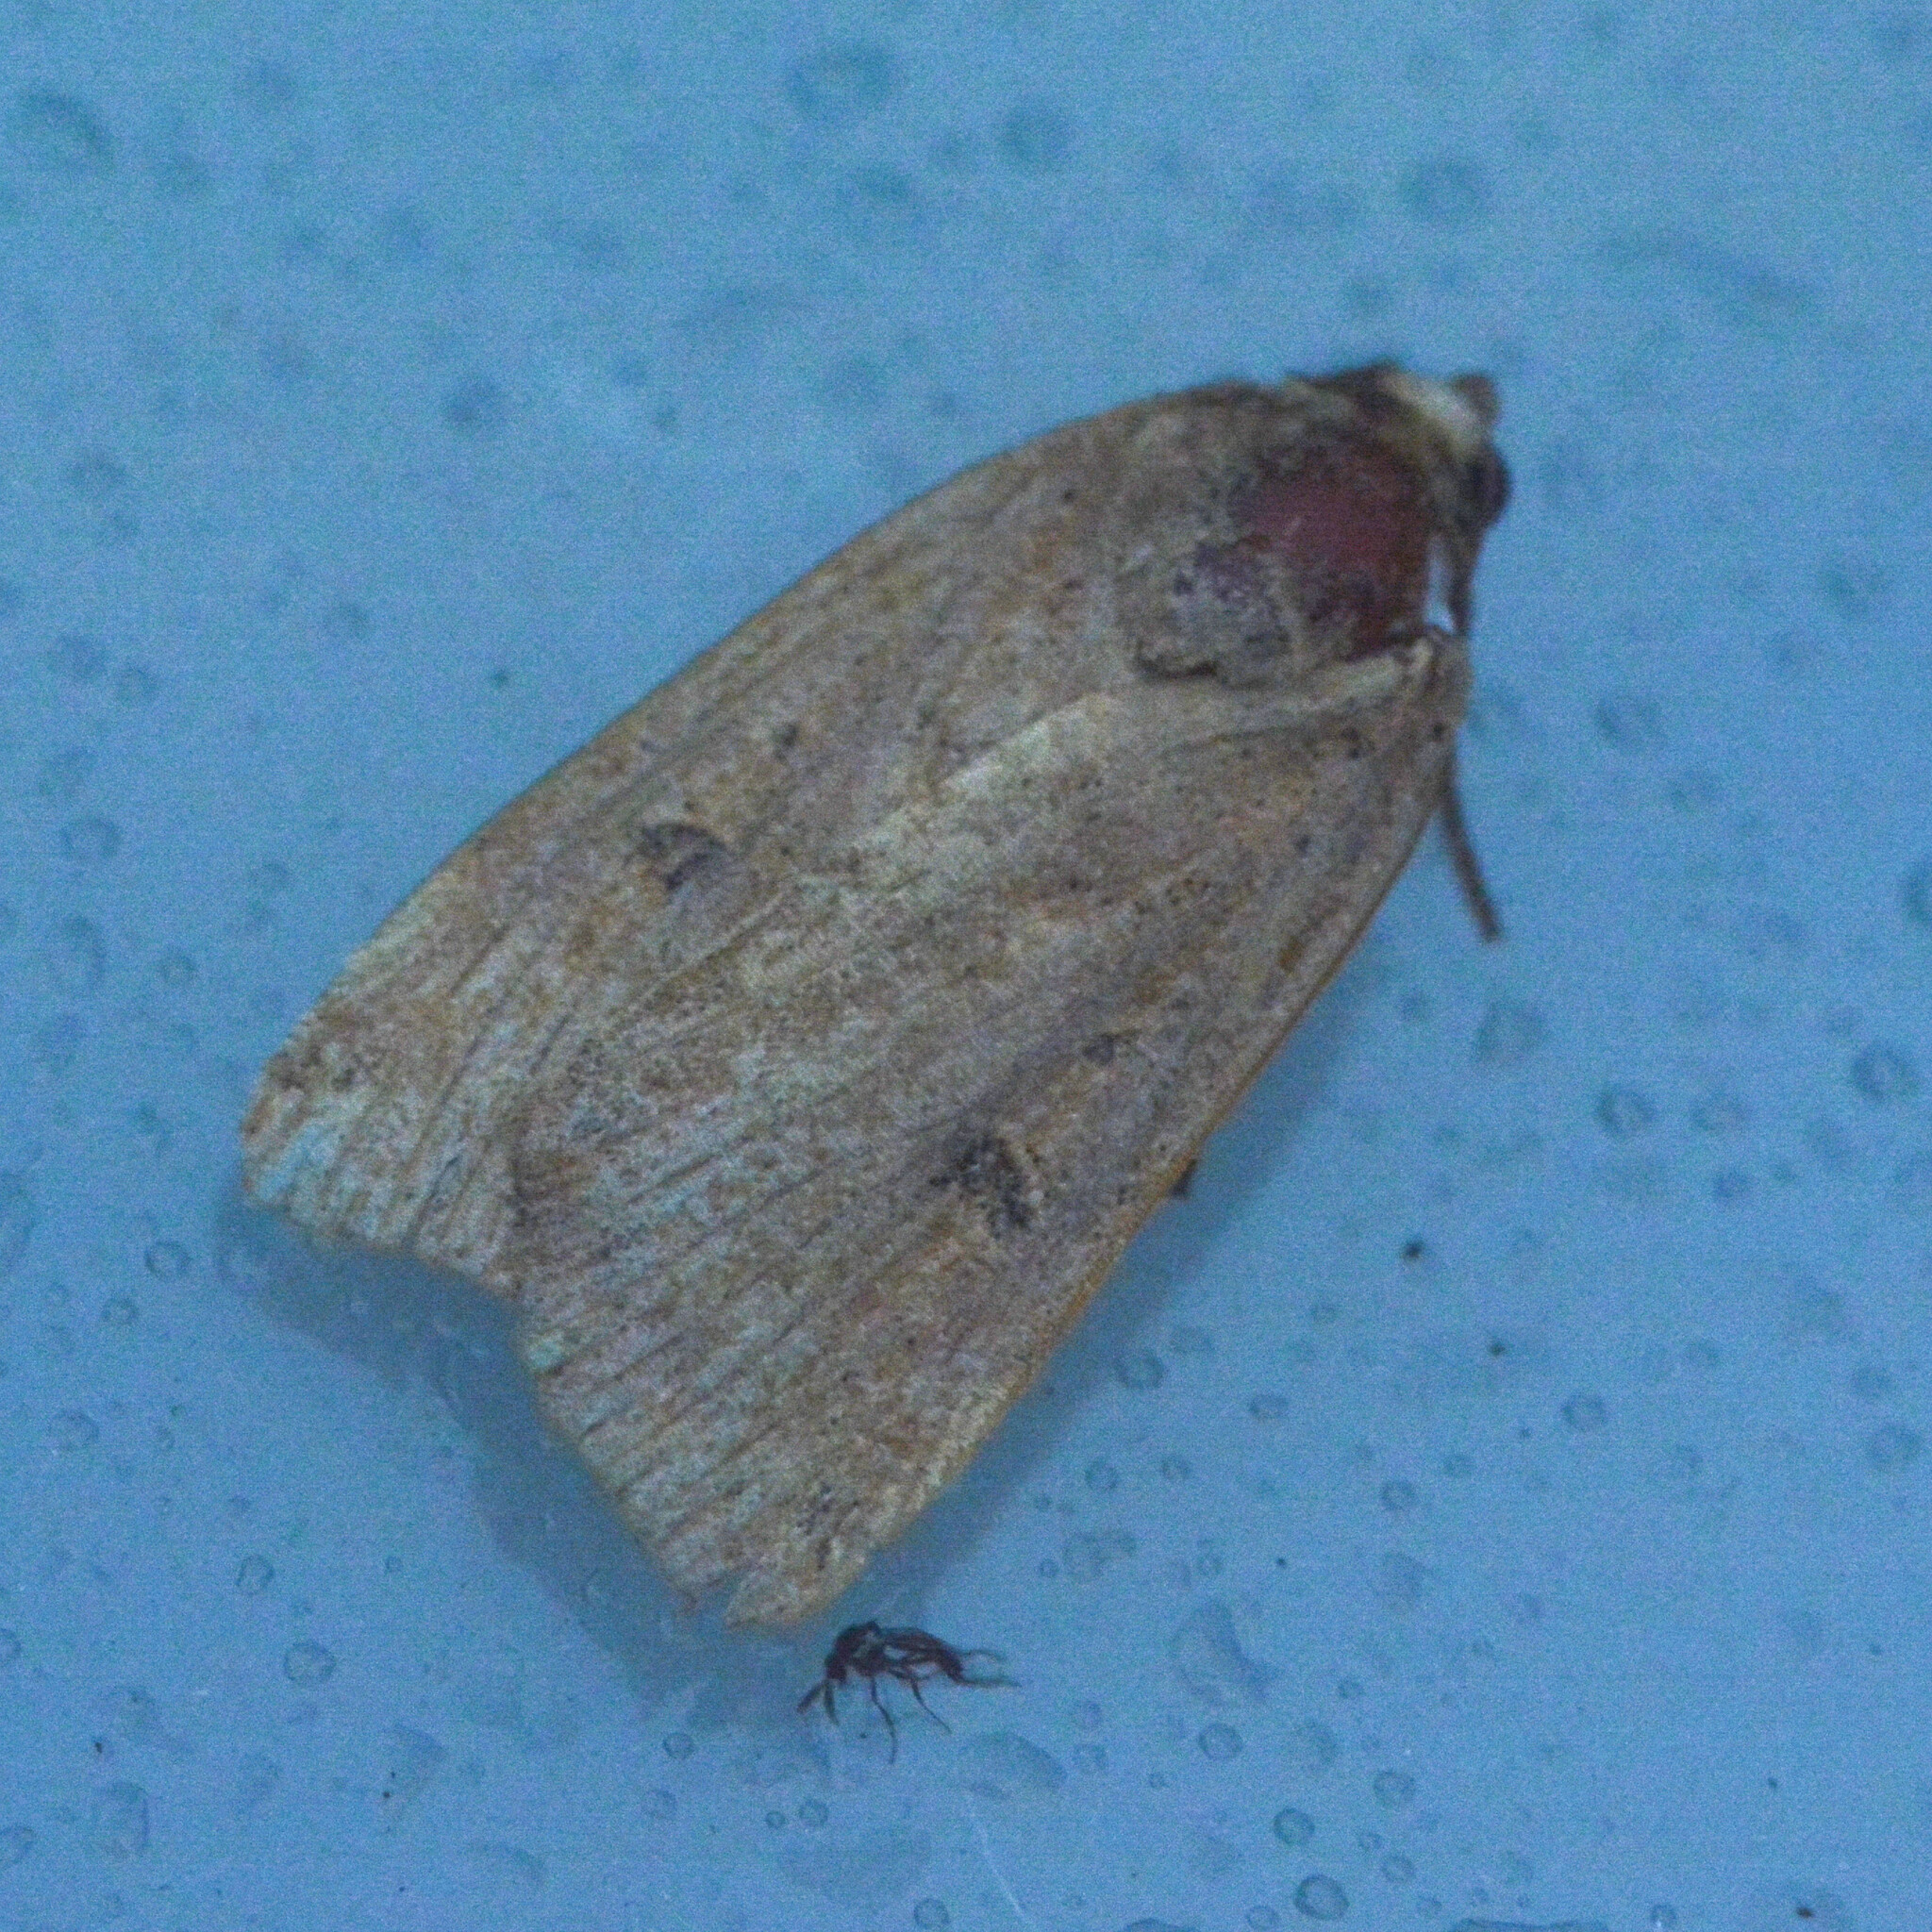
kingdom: Animalia
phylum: Arthropoda
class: Insecta
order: Lepidoptera
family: Noctuidae
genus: Noctua
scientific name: Noctua comes
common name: Lesser yellow underwing
